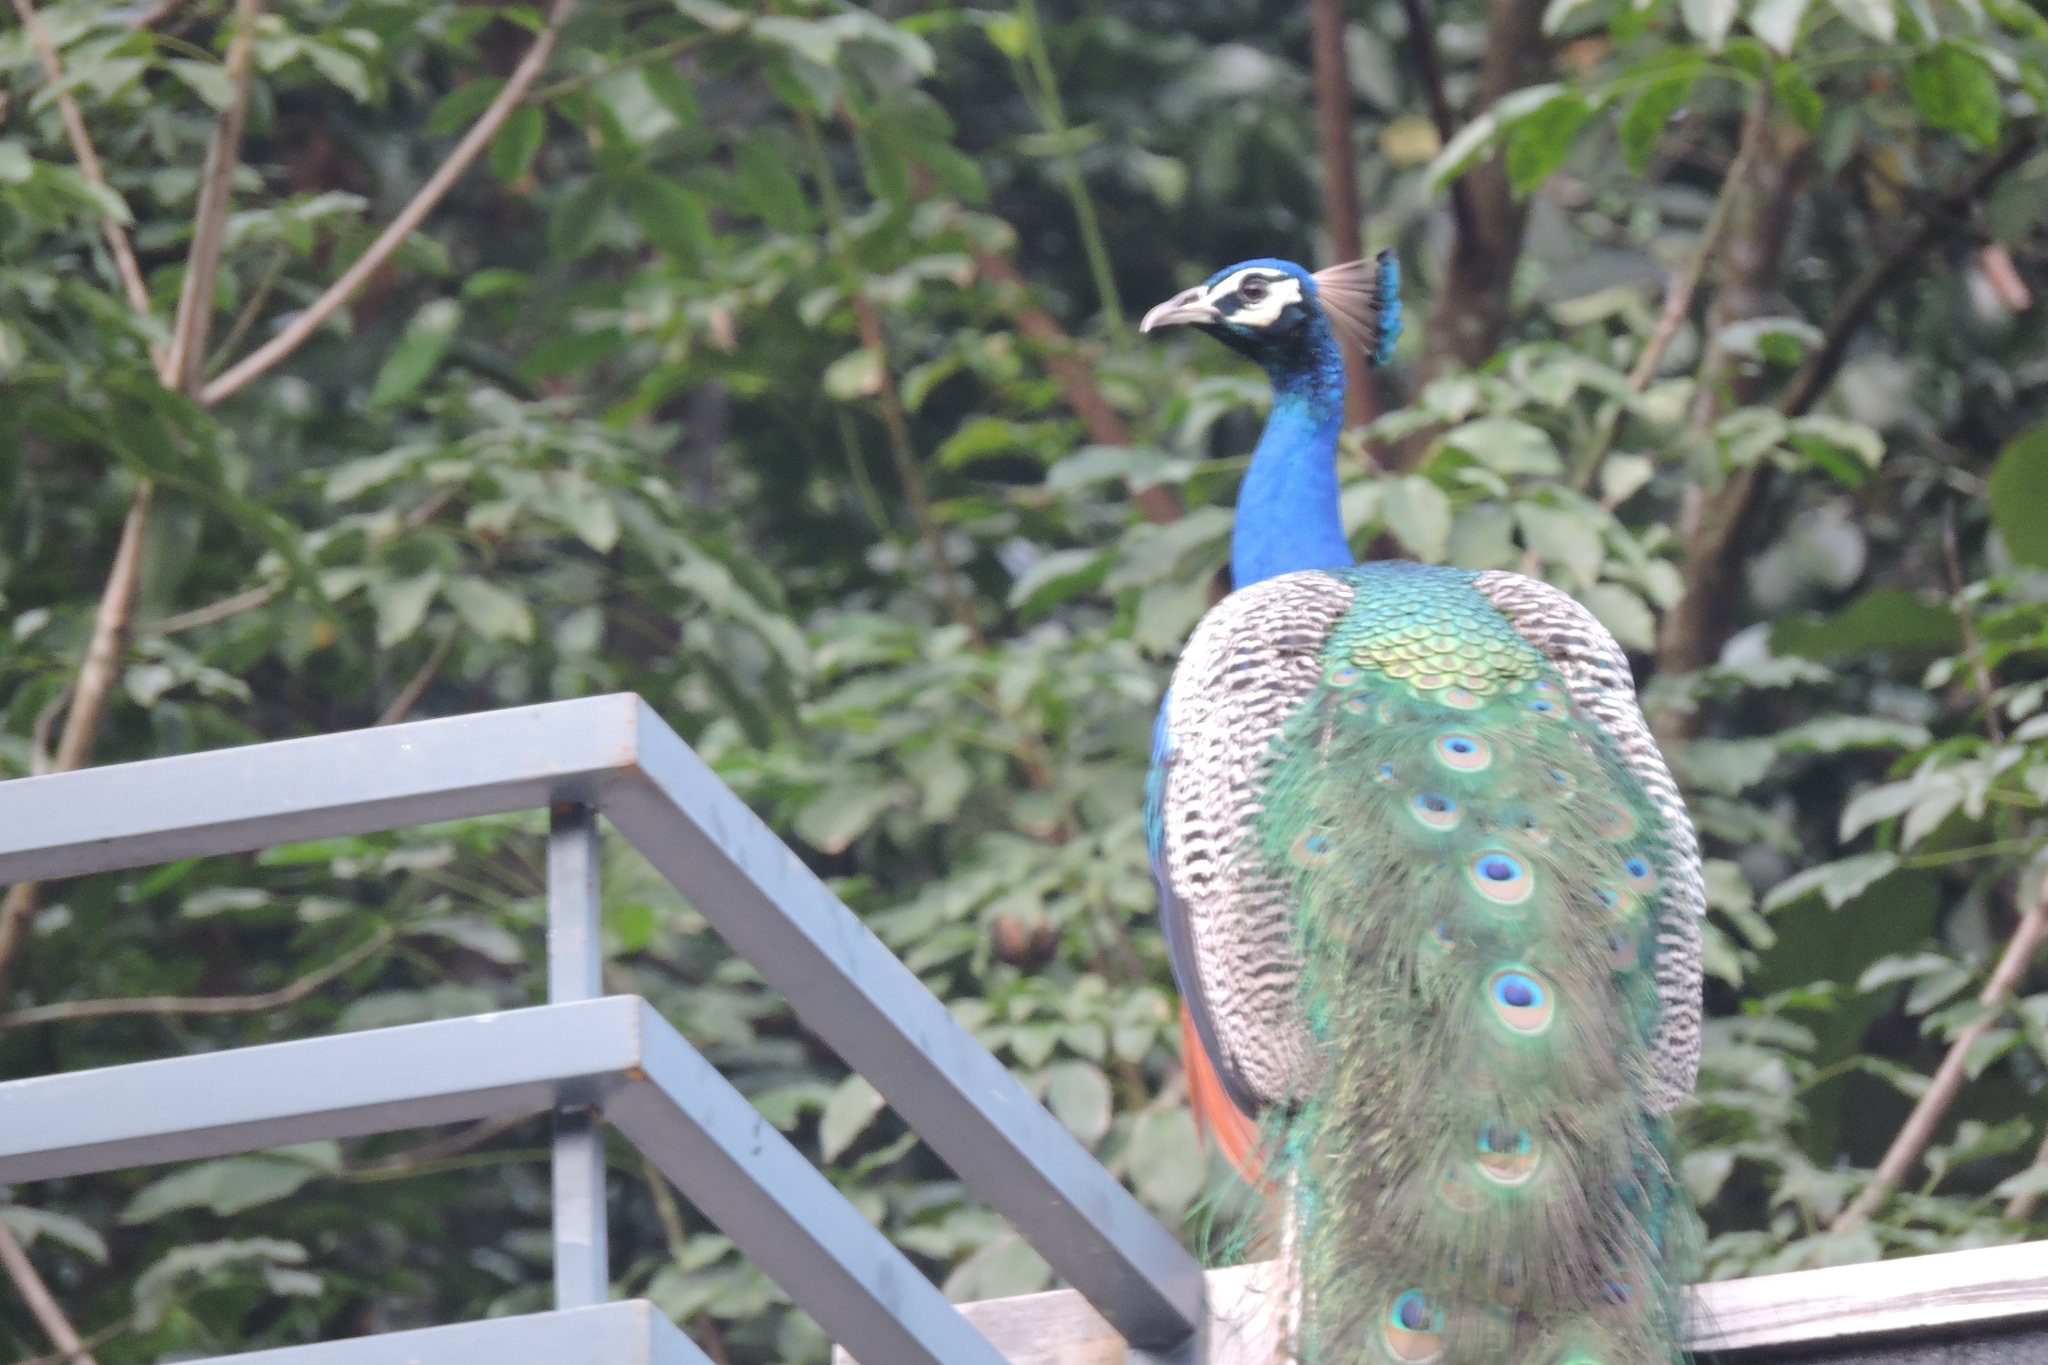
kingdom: Animalia
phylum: Chordata
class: Aves
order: Galliformes
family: Phasianidae
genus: Pavo
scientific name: Pavo cristatus
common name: Indian peafowl
